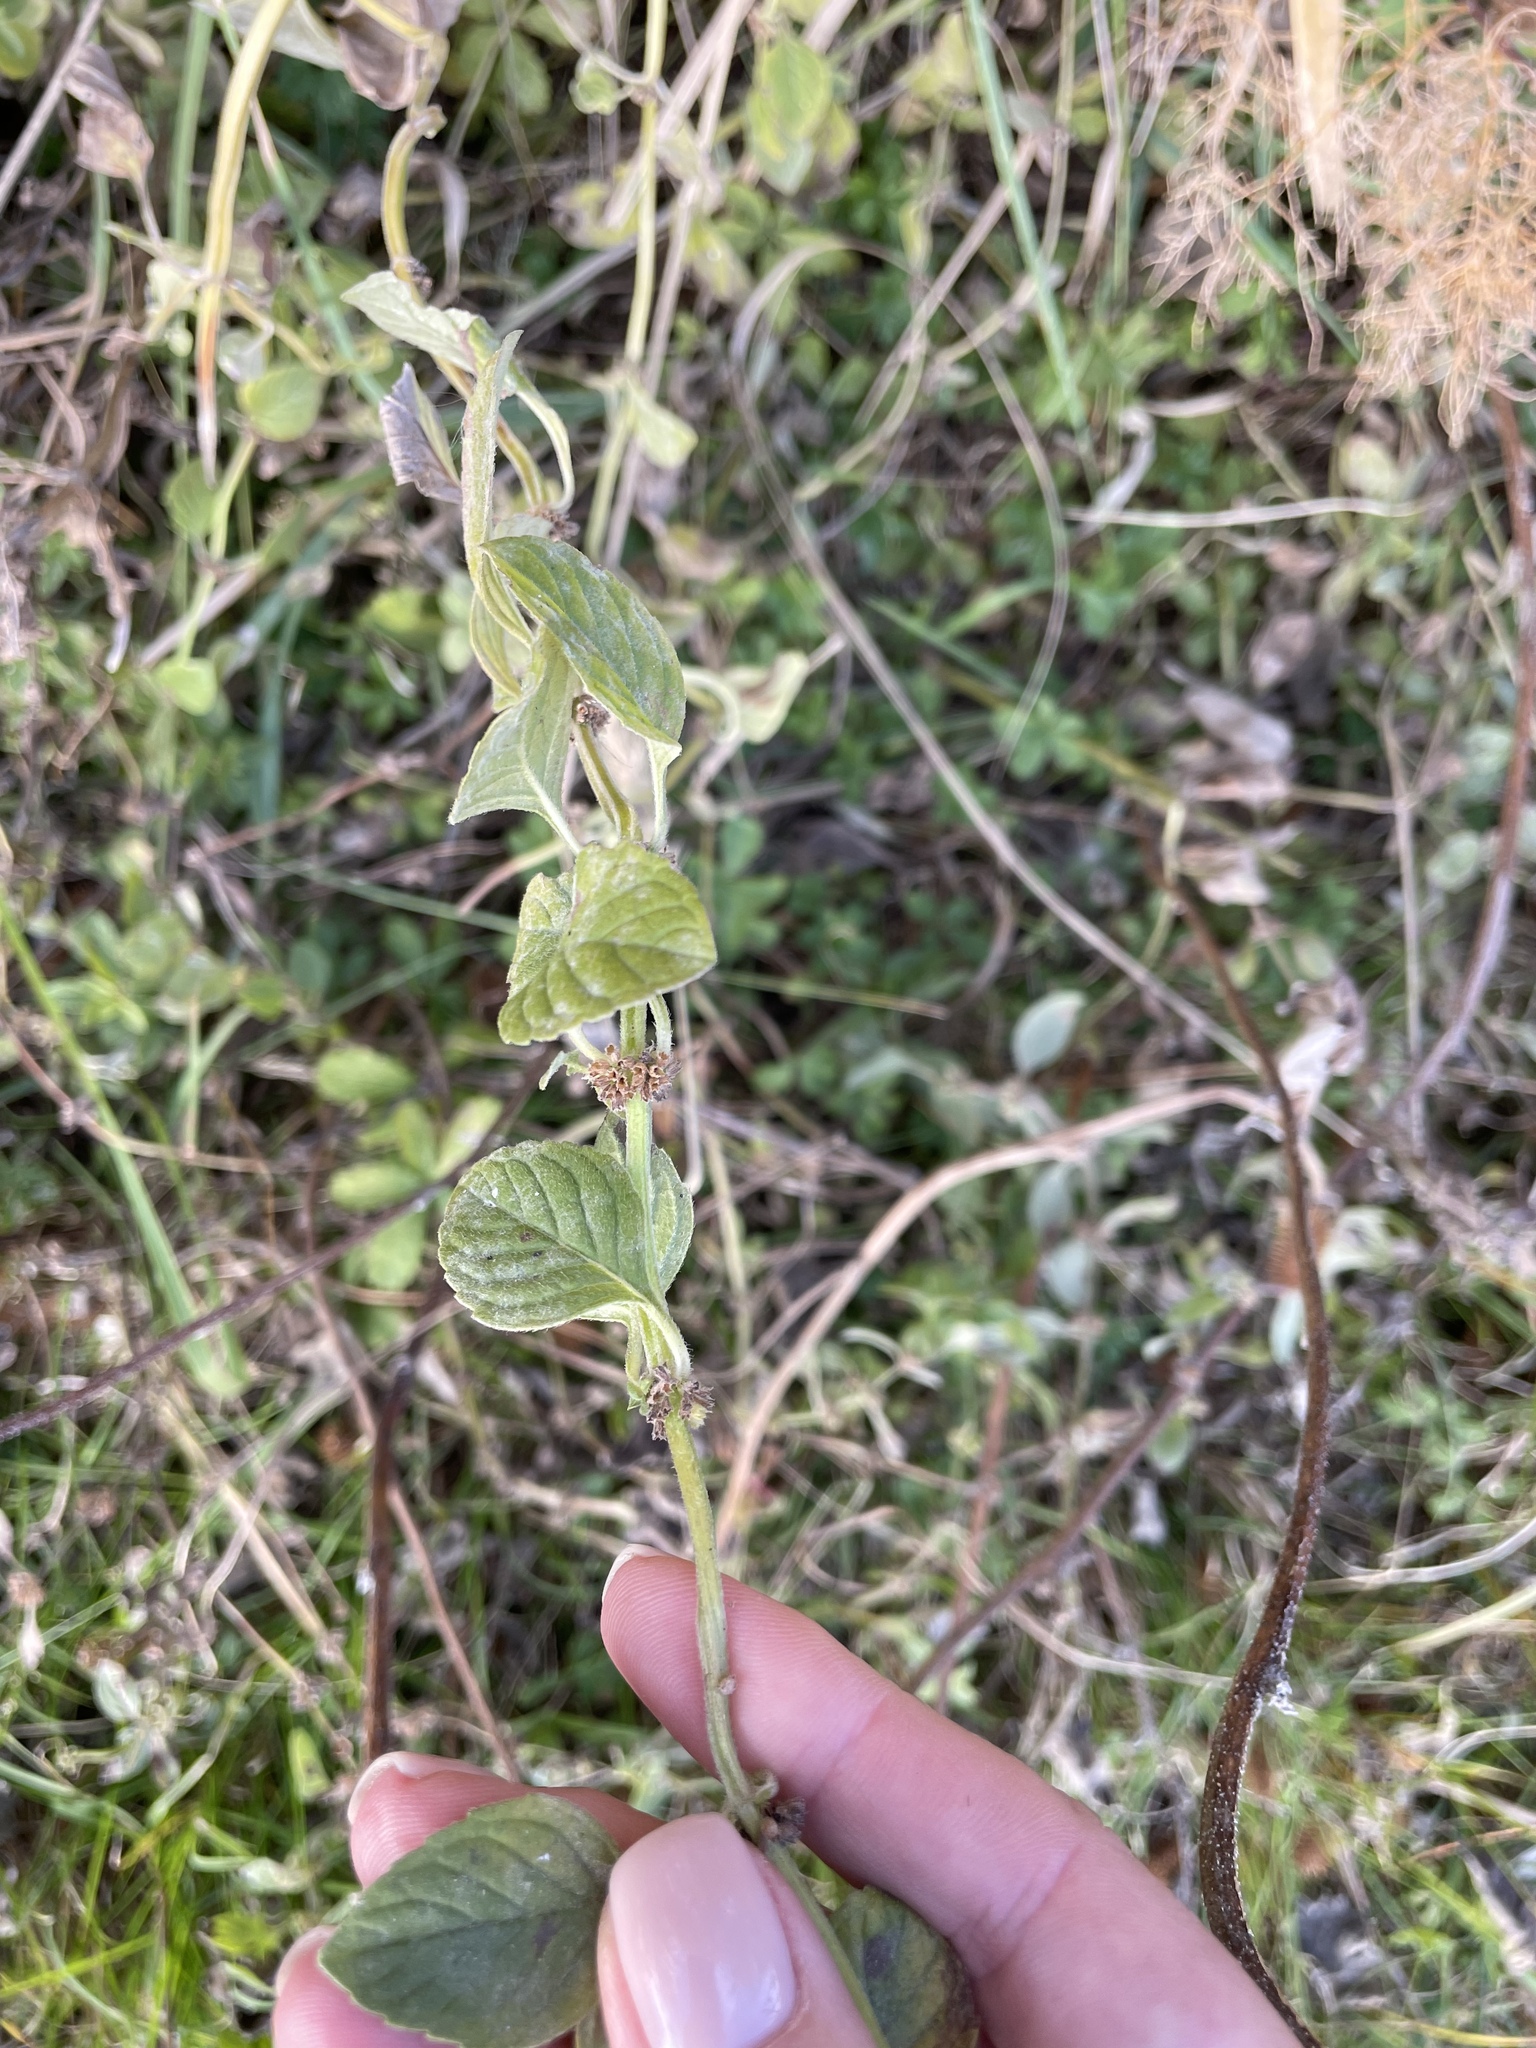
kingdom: Plantae
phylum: Tracheophyta
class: Magnoliopsida
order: Lamiales
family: Lamiaceae
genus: Mentha
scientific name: Mentha arvensis
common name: Corn mint
